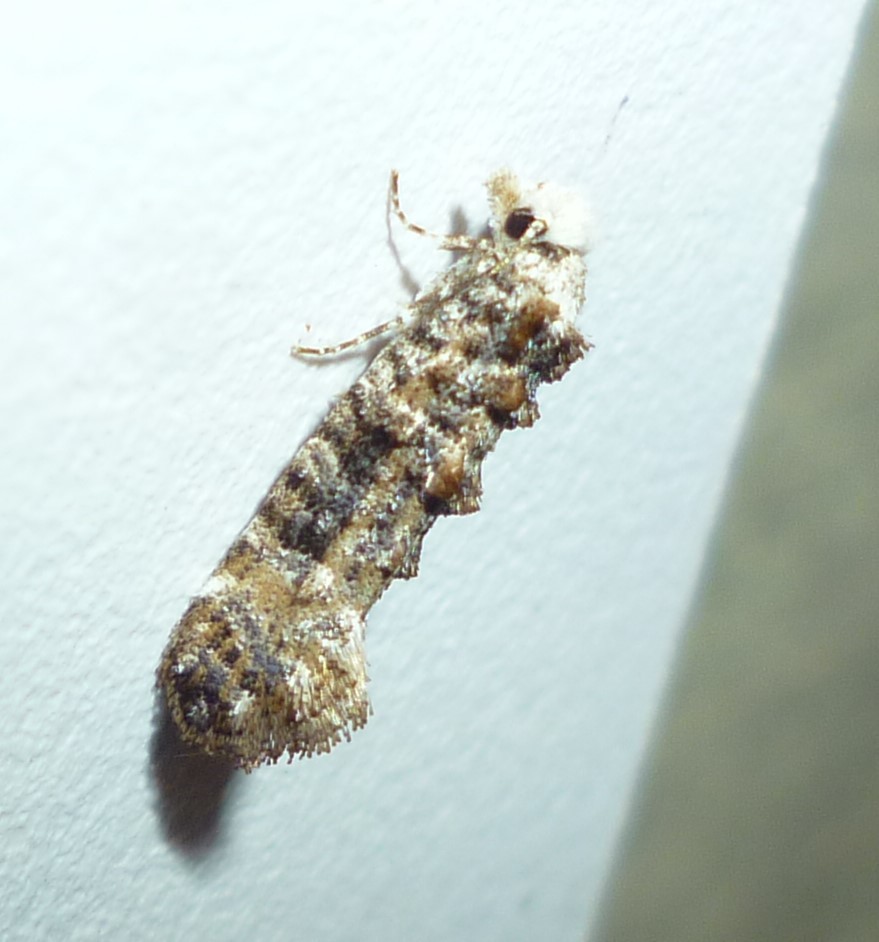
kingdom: Animalia
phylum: Arthropoda
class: Insecta
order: Lepidoptera
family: Tineidae
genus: Xylesthia
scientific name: Xylesthia pruniramiella
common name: Clemens' bark moth
